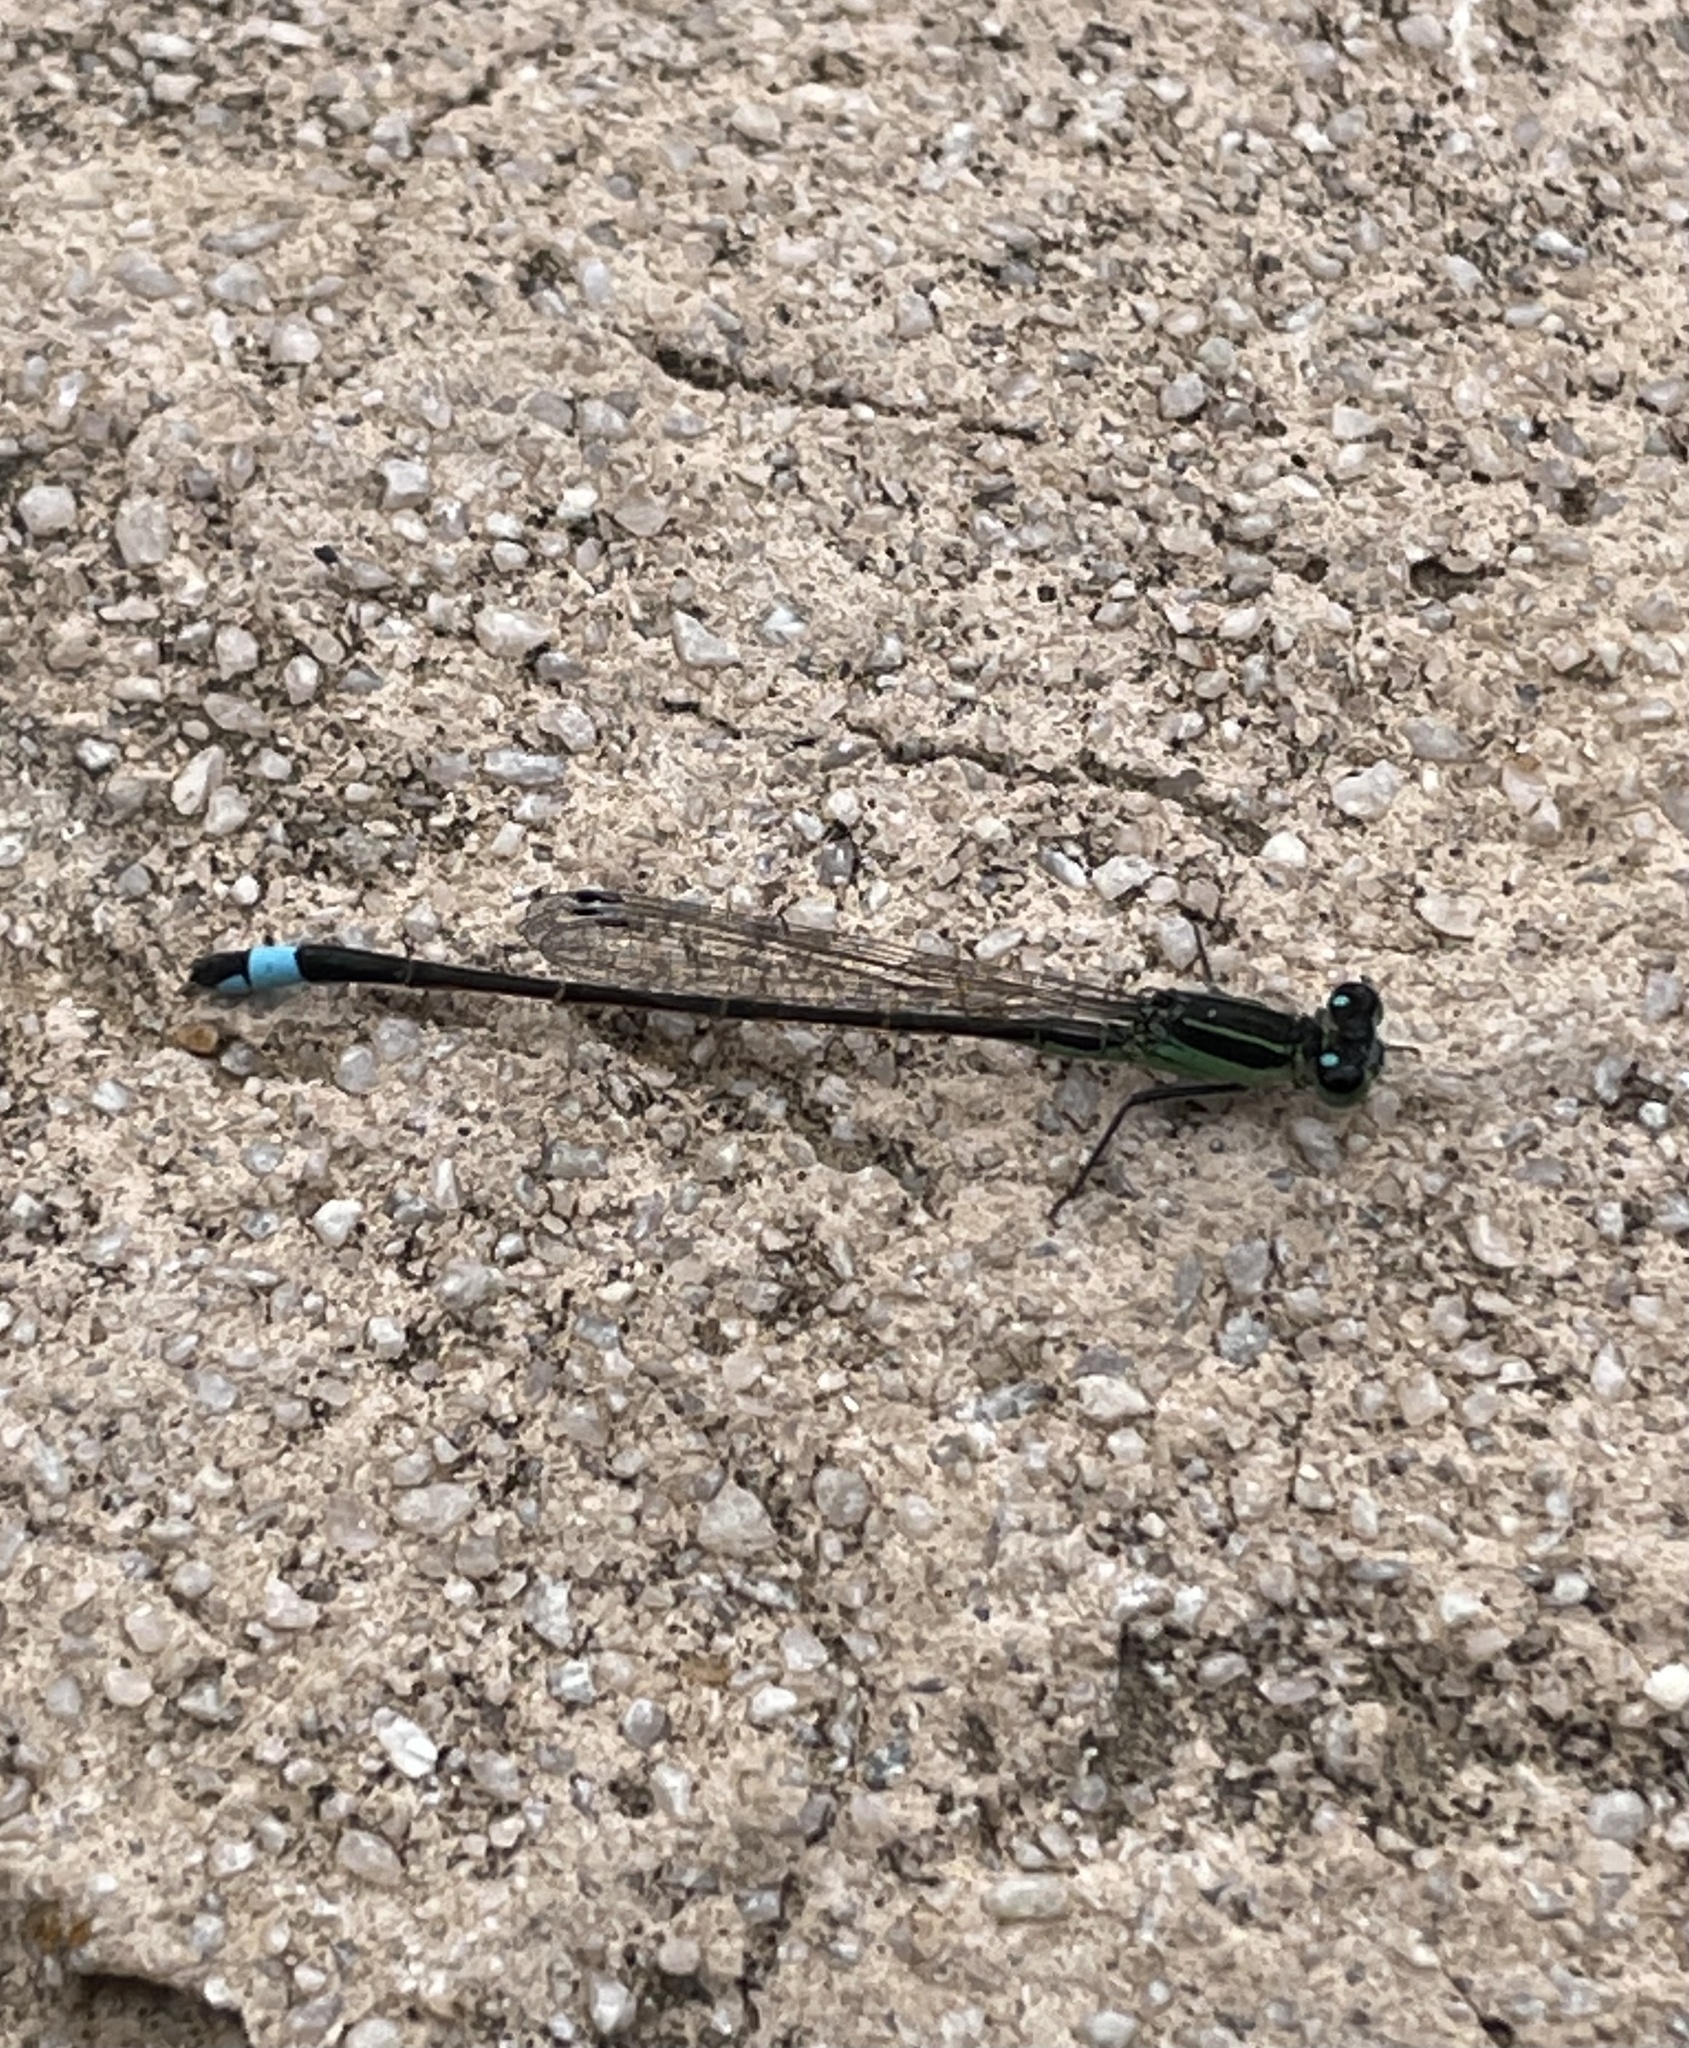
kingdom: Animalia
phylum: Arthropoda
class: Insecta
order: Odonata
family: Coenagrionidae
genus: Ischnura
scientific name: Ischnura ramburii
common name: Rambur's forktail
